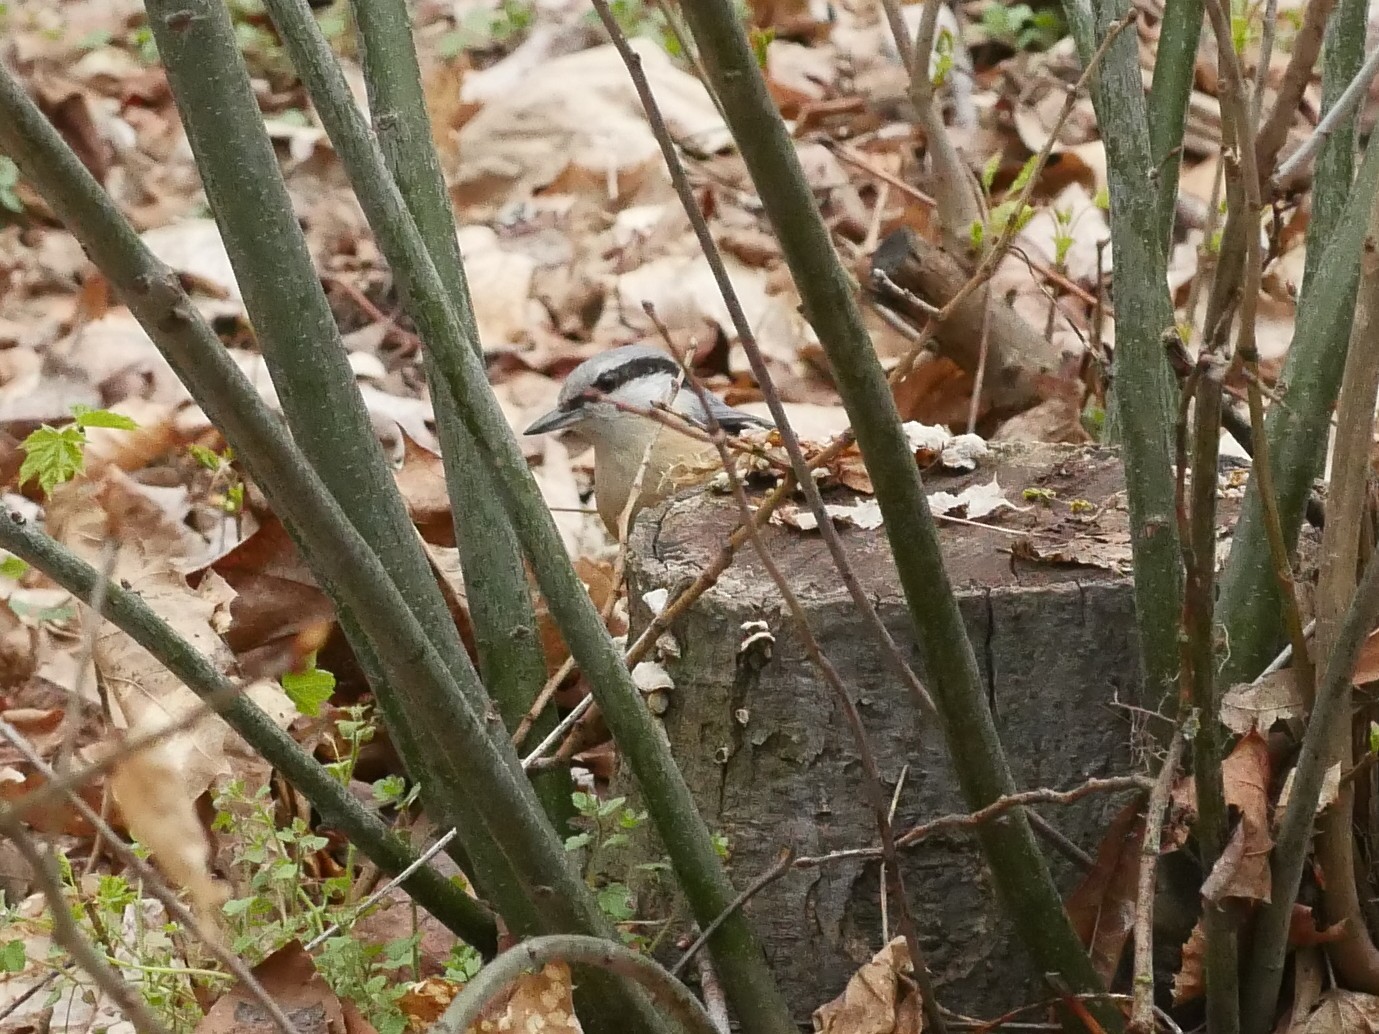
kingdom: Animalia
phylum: Chordata
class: Aves
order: Passeriformes
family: Sittidae
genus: Sitta
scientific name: Sitta europaea
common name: Eurasian nuthatch
